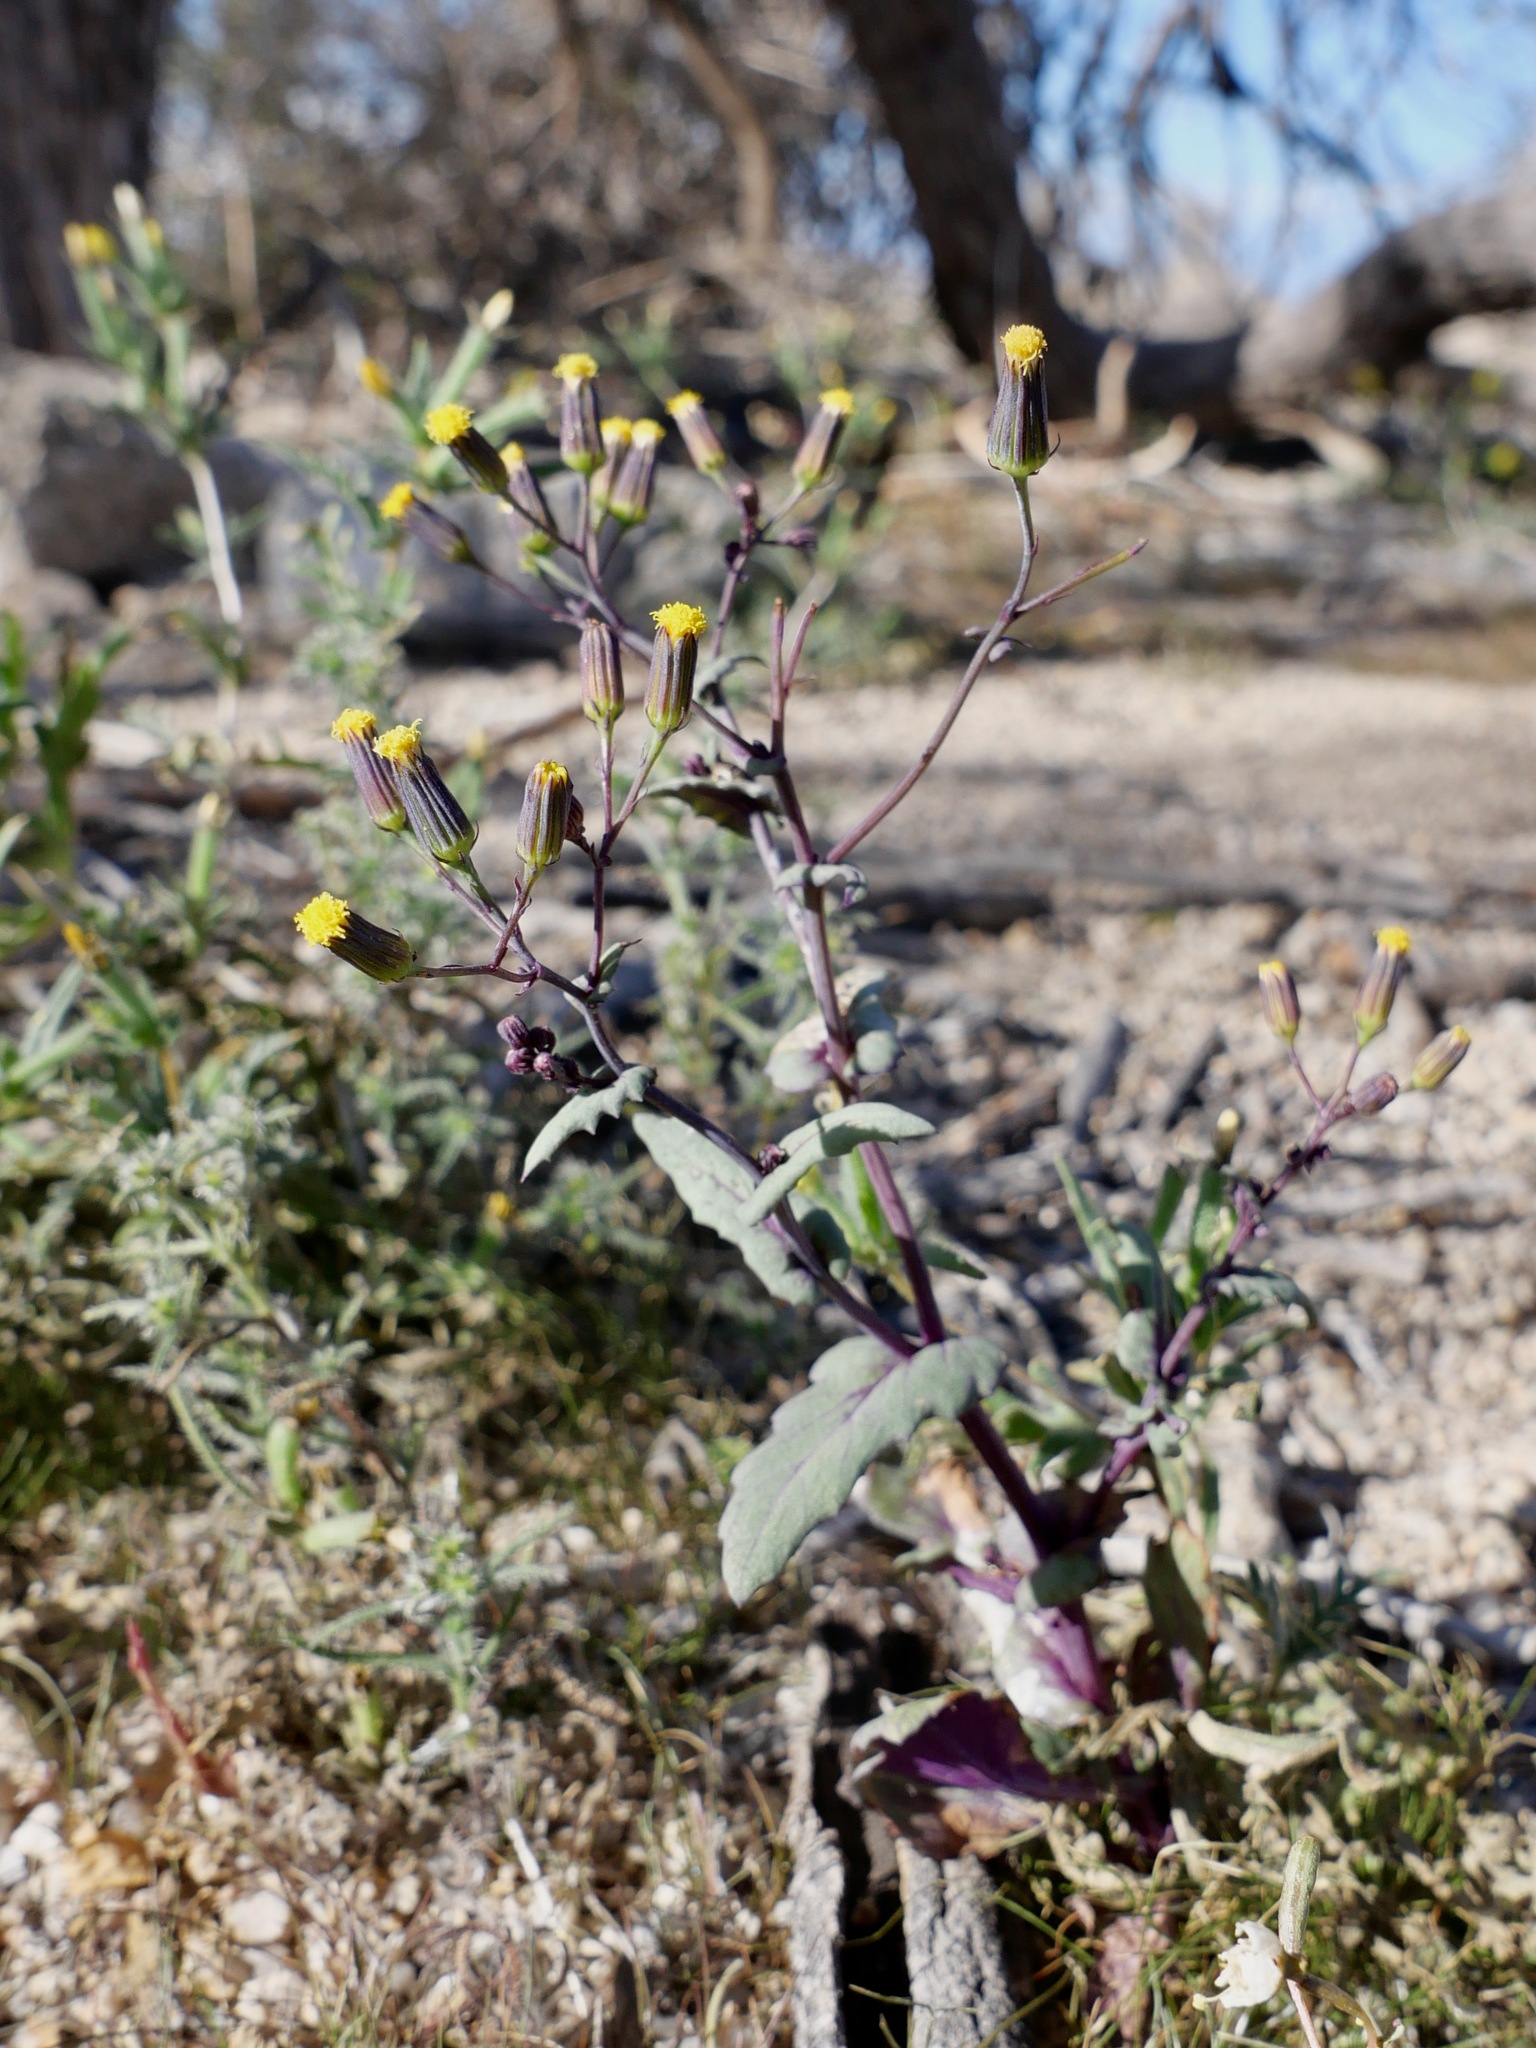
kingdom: Plantae
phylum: Tracheophyta
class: Magnoliopsida
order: Asterales
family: Asteraceae
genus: Senecio
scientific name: Senecio mohavensis
